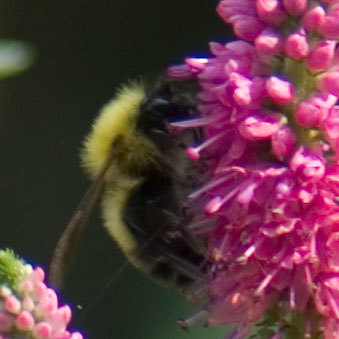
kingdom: Animalia
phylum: Arthropoda
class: Insecta
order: Hymenoptera
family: Apidae
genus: Bombus
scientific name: Bombus perplexus
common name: Confusing bumble bee
